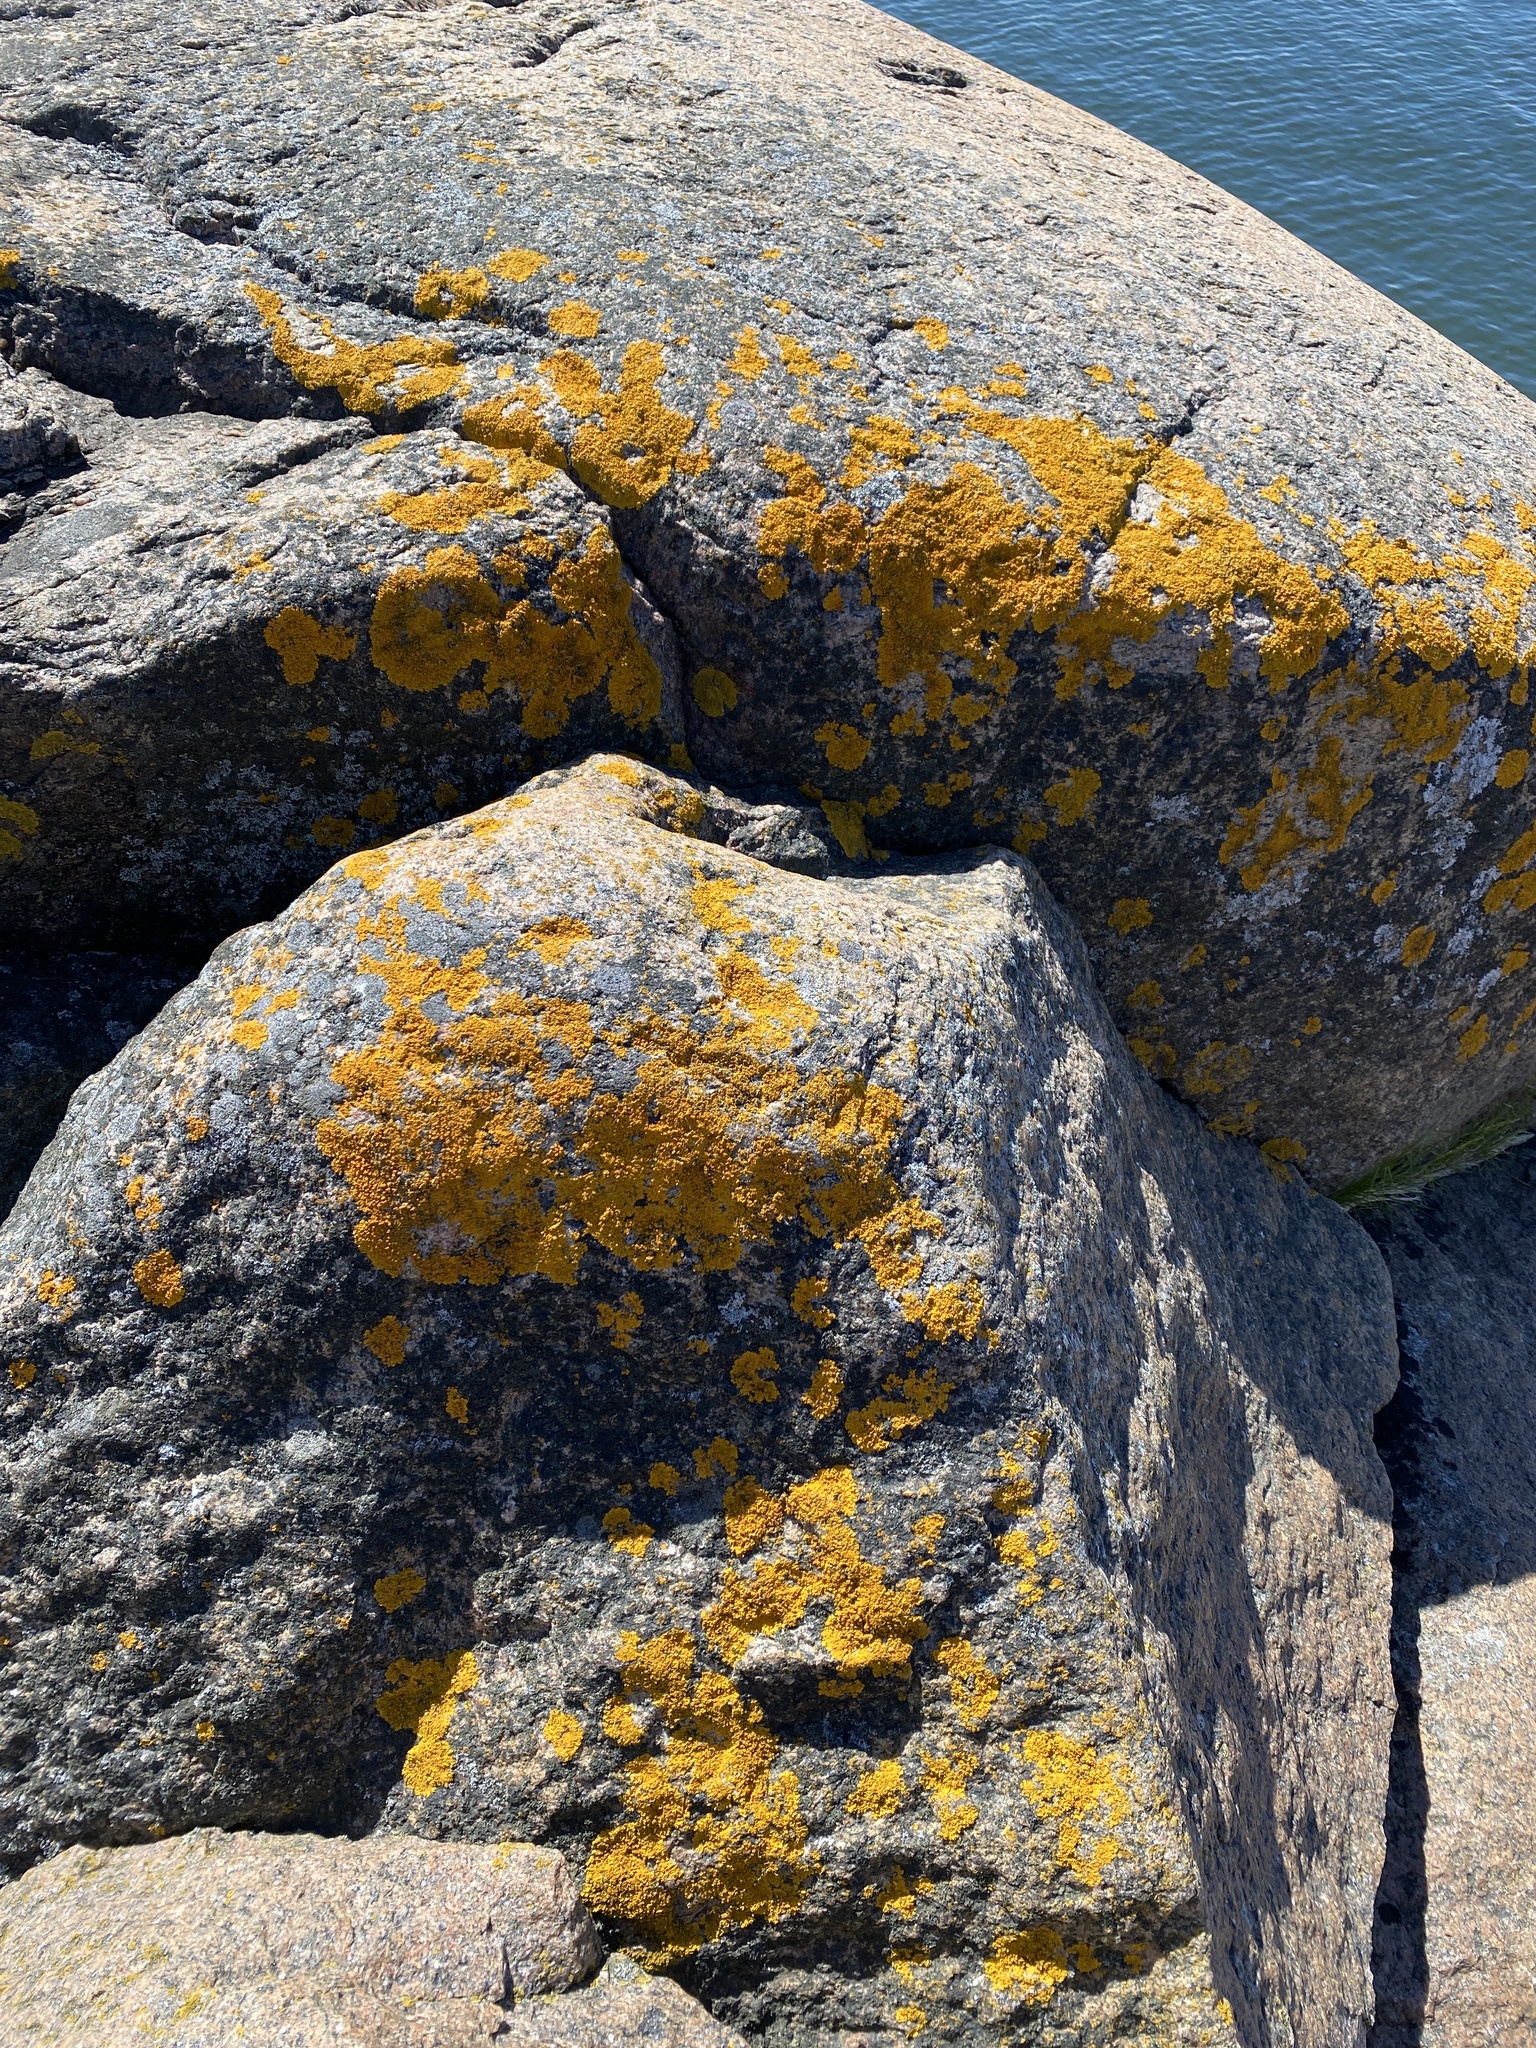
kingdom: Fungi
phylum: Ascomycota
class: Lecanoromycetes
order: Teloschistales
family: Teloschistaceae
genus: Xanthoria
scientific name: Xanthoria parietina
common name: Common orange lichen
